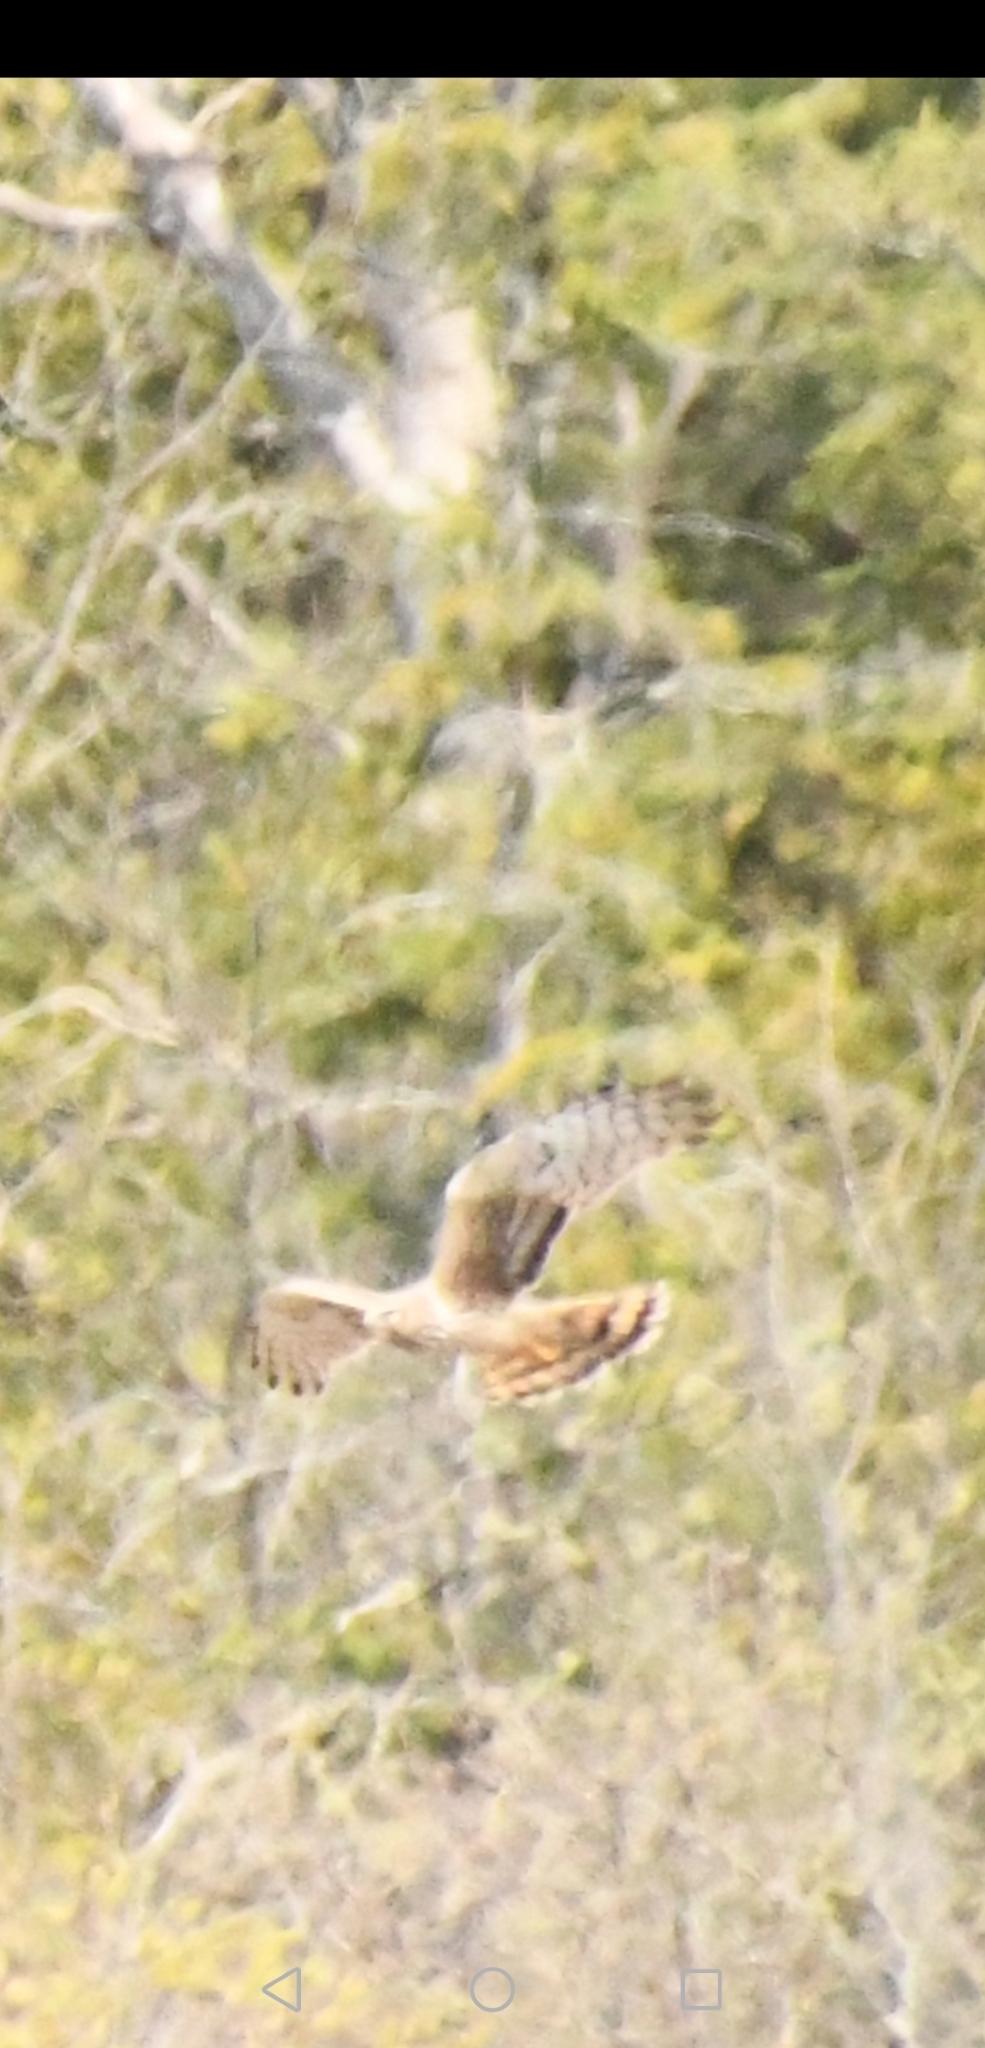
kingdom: Animalia
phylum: Chordata
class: Aves
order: Accipitriformes
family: Accipitridae
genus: Circus
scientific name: Circus cyaneus
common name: Hen harrier
